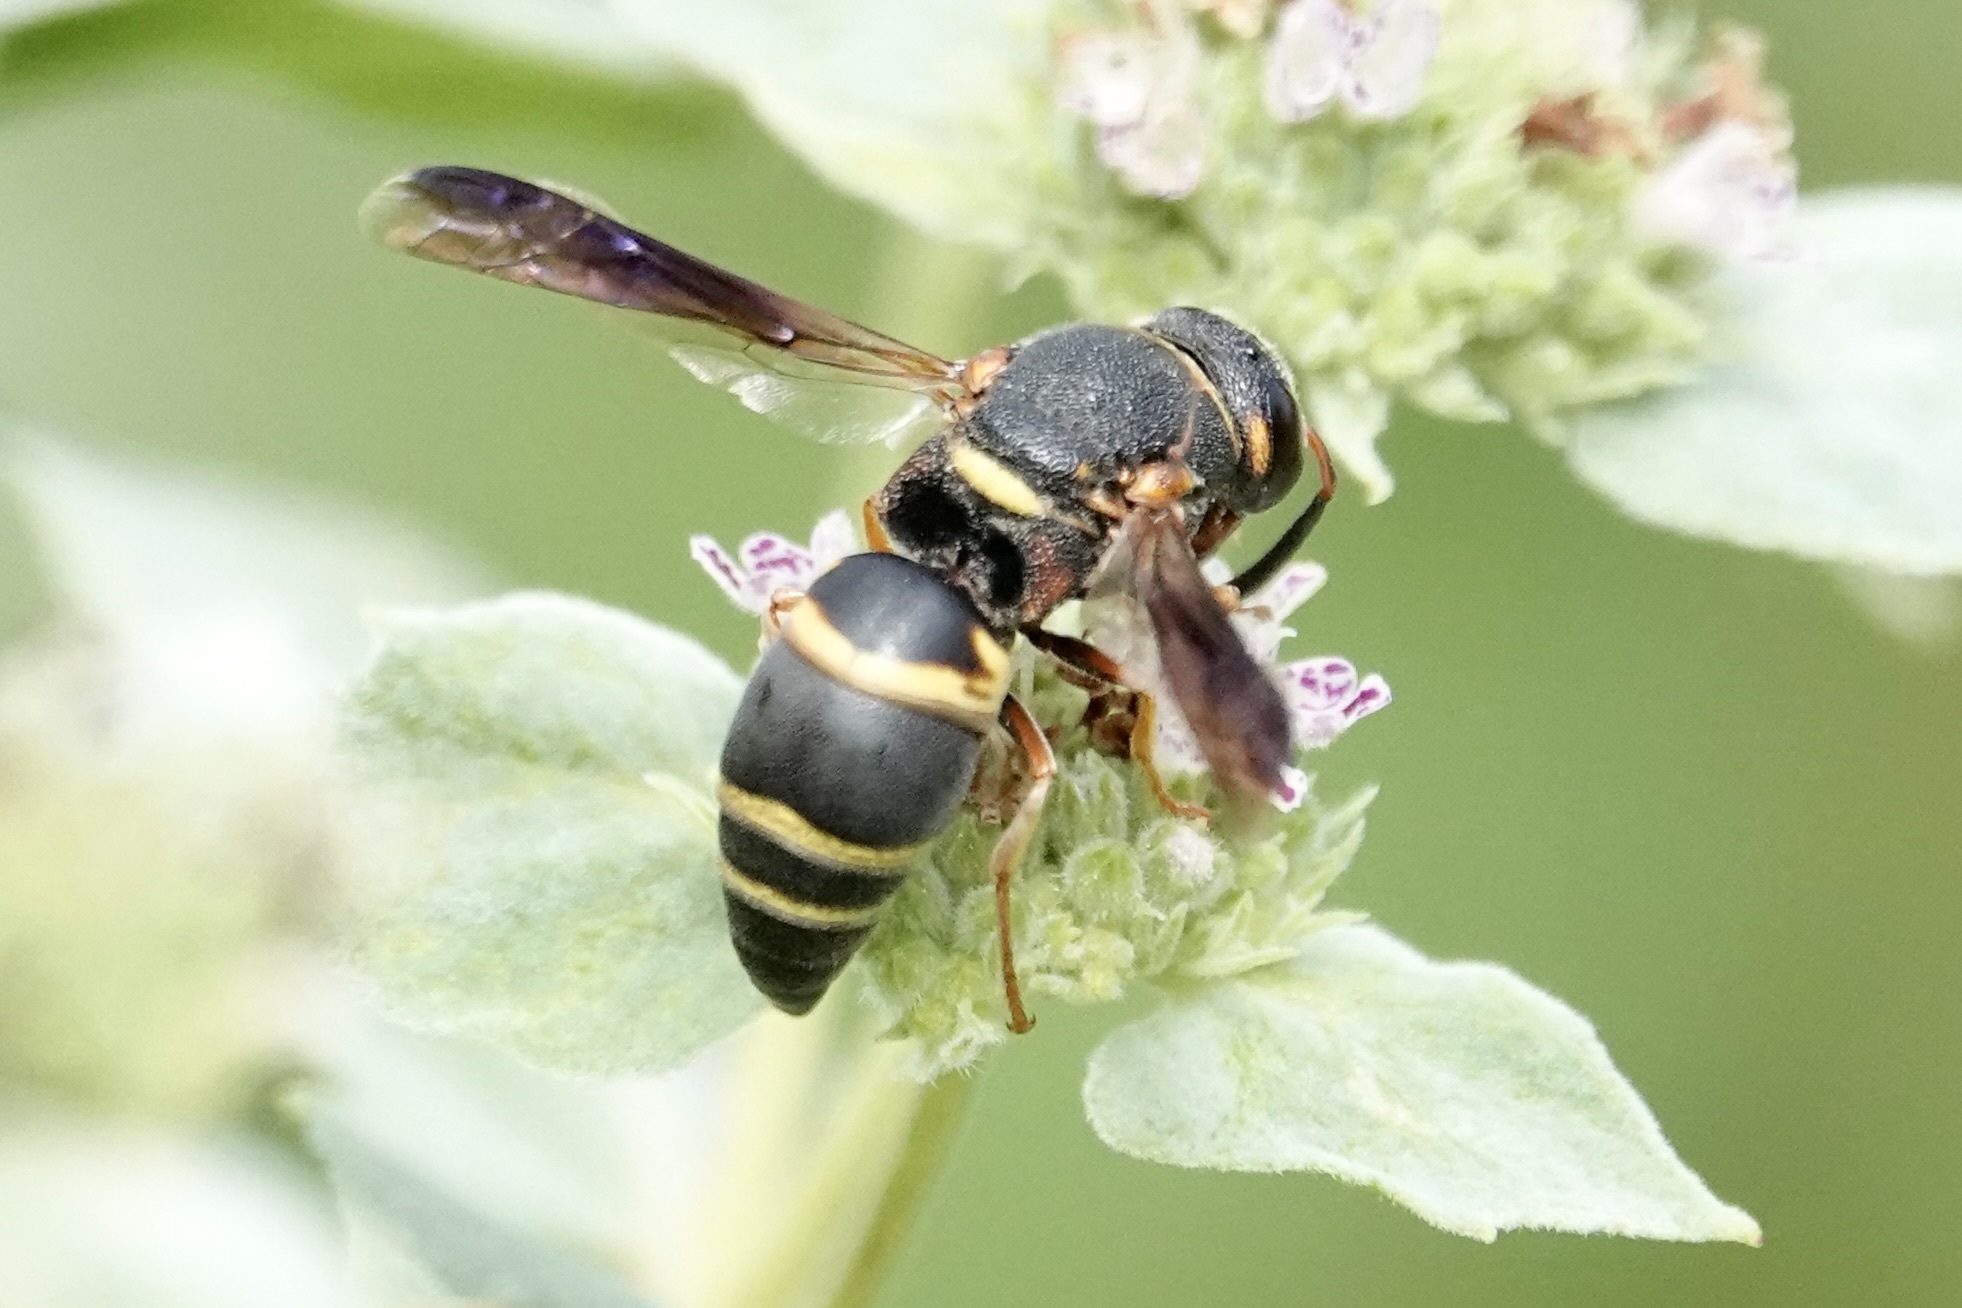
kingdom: Animalia
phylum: Arthropoda
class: Insecta
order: Hymenoptera
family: Eumenidae
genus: Euodynerus
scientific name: Euodynerus hidalgo
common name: Wasp
